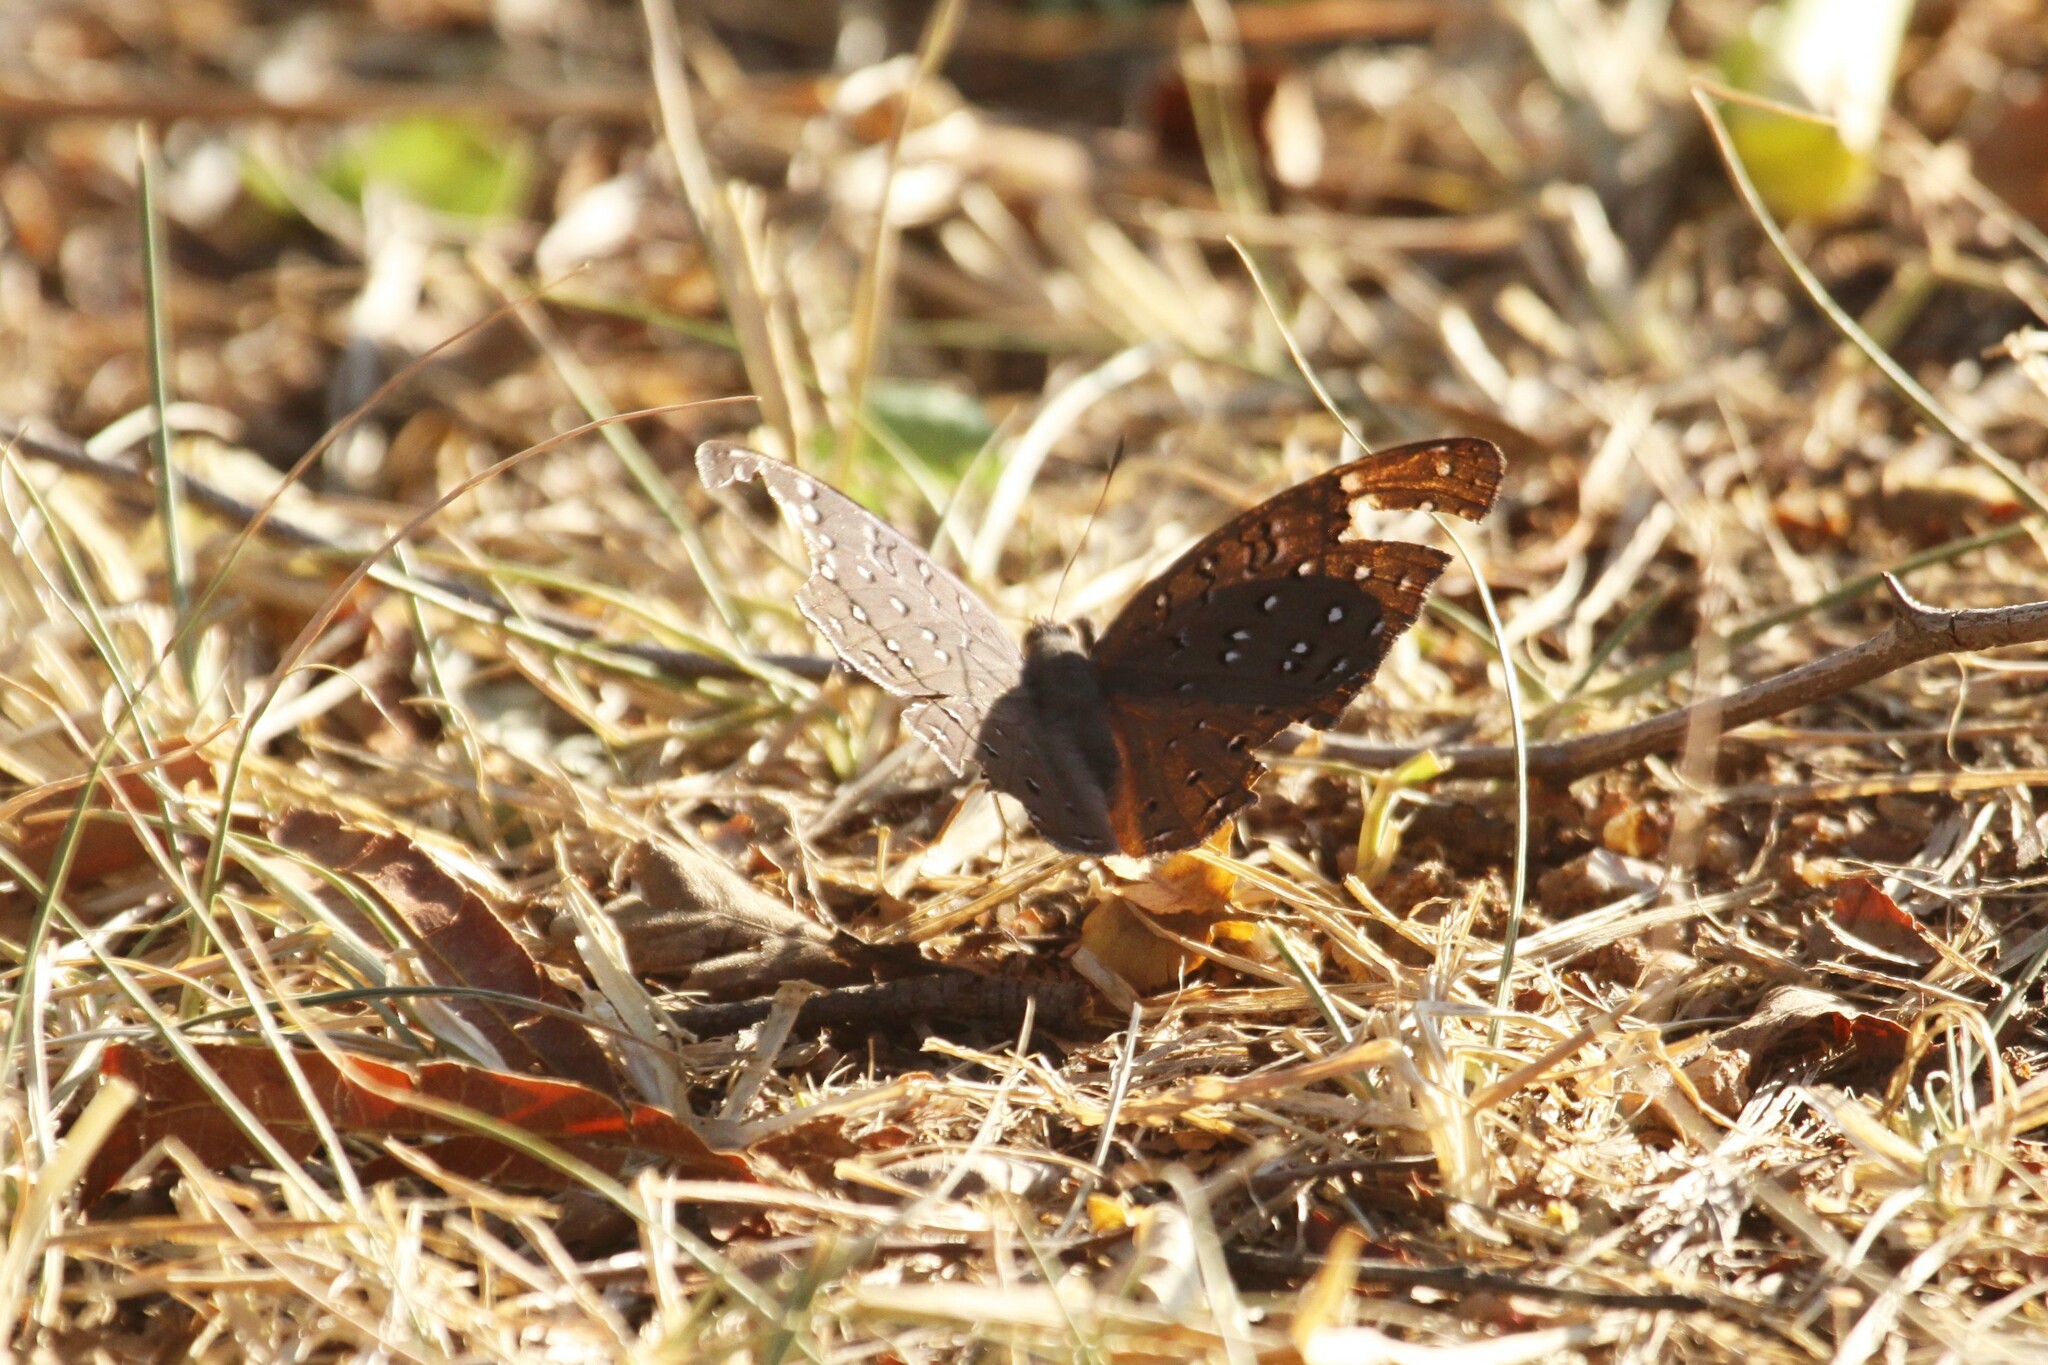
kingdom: Animalia
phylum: Arthropoda
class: Insecta
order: Lepidoptera
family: Nymphalidae
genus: Hamanumida
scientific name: Hamanumida daedalus
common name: Guinea-fowl butterfly
